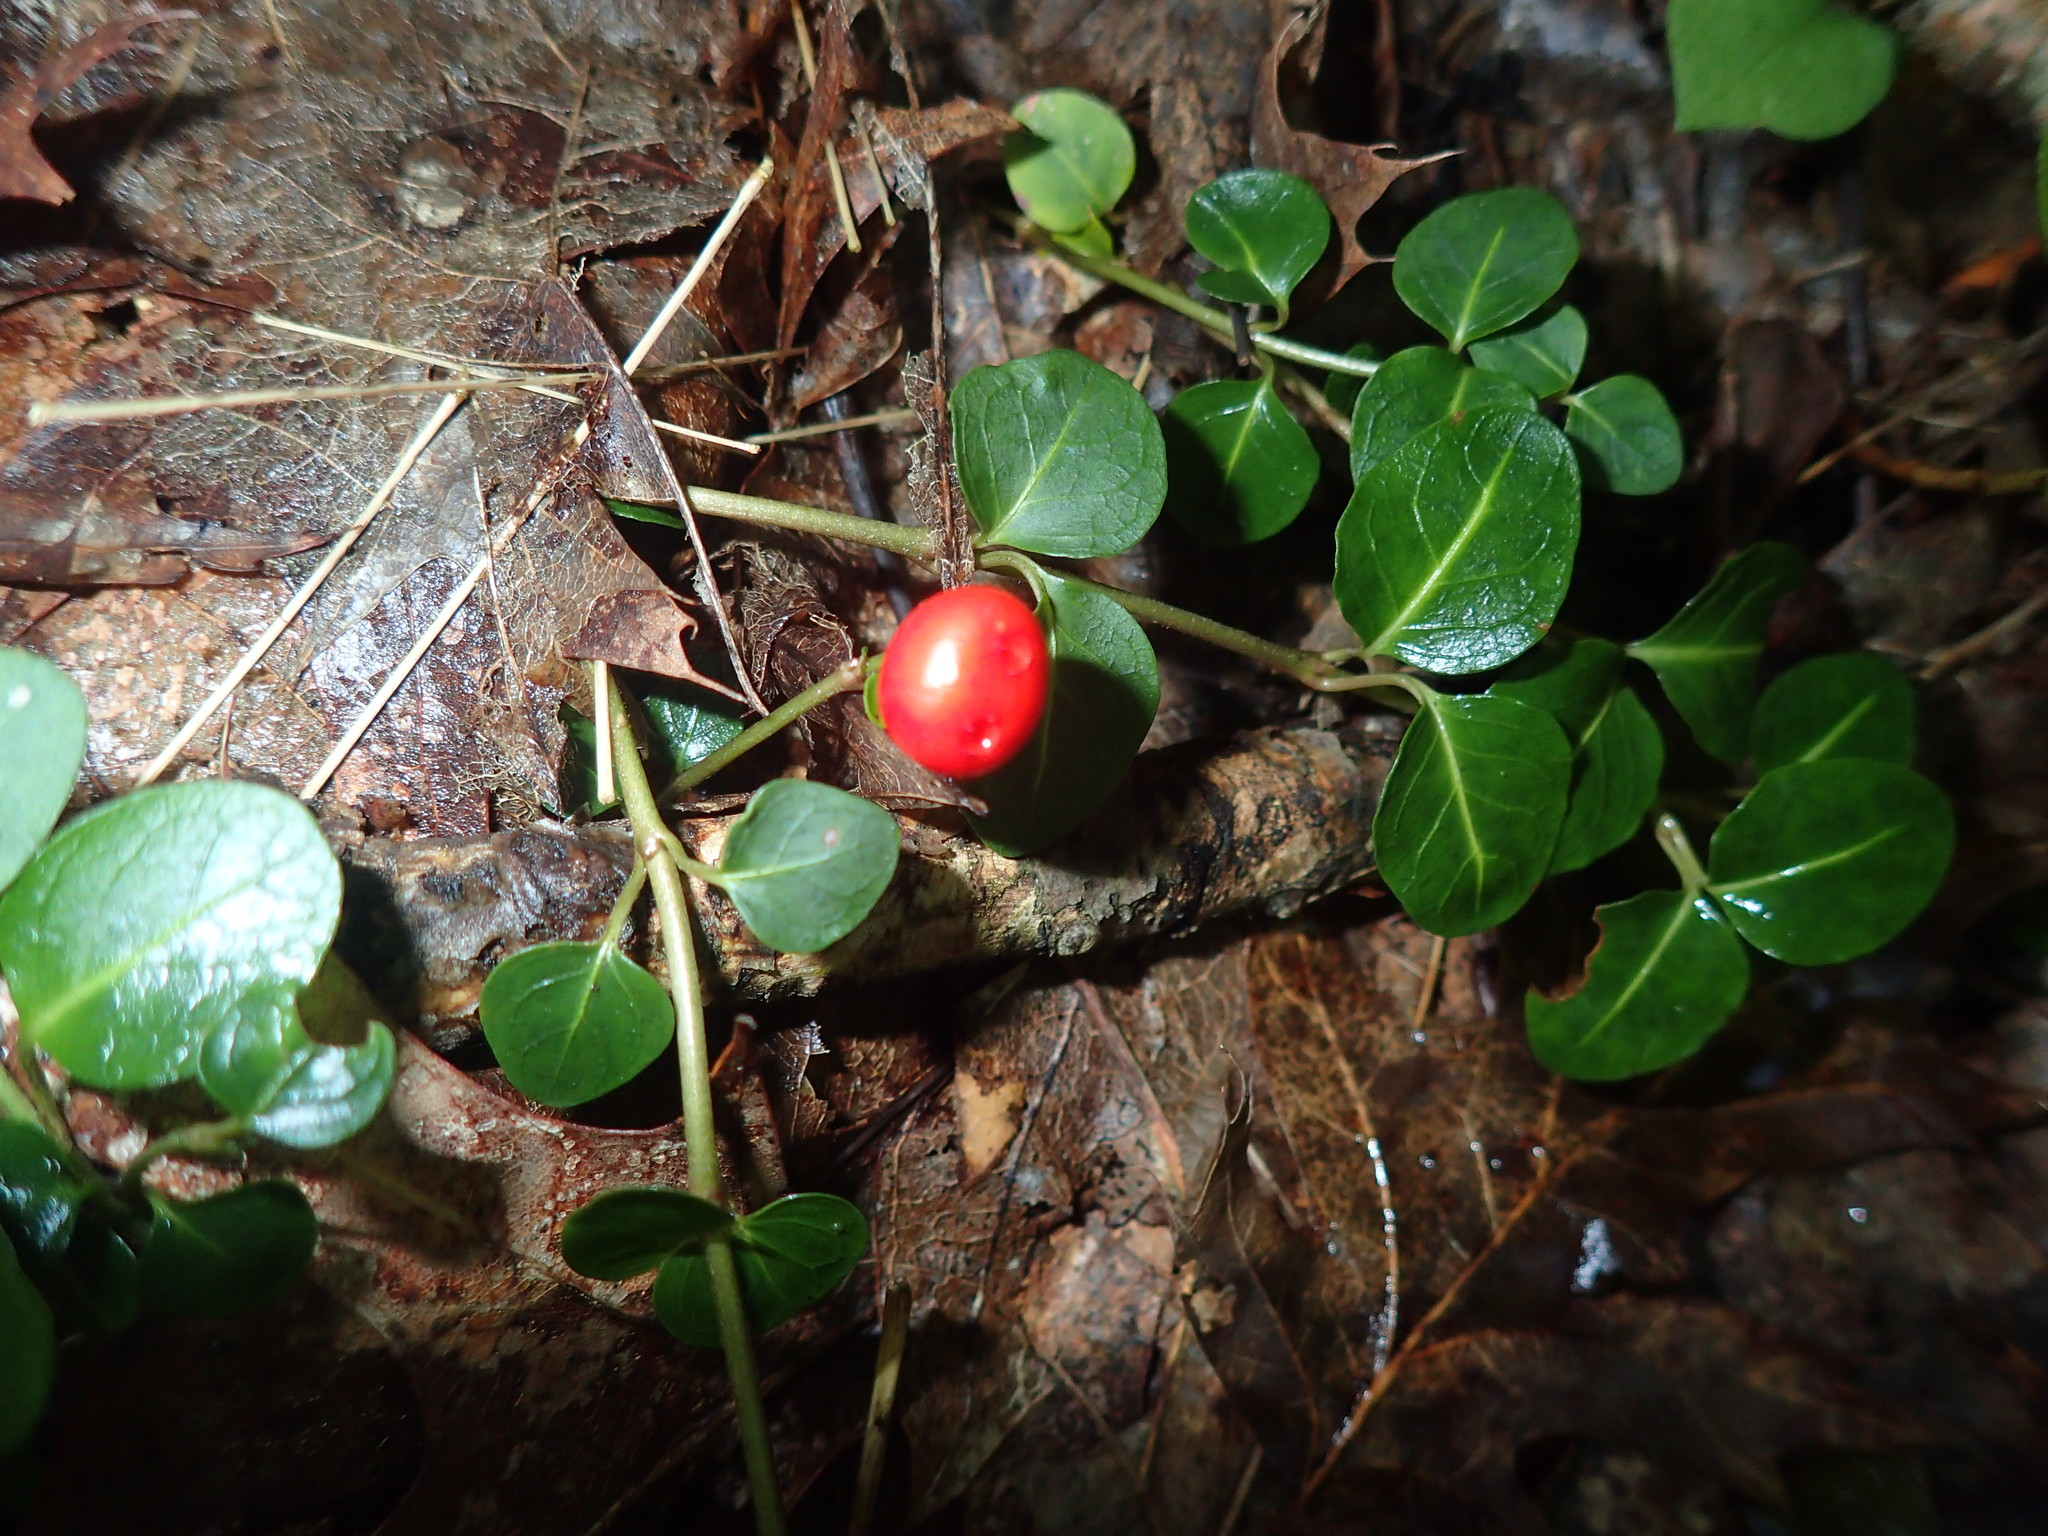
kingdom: Plantae
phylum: Tracheophyta
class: Magnoliopsida
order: Gentianales
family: Rubiaceae
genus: Mitchella
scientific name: Mitchella repens
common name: Partridge-berry
